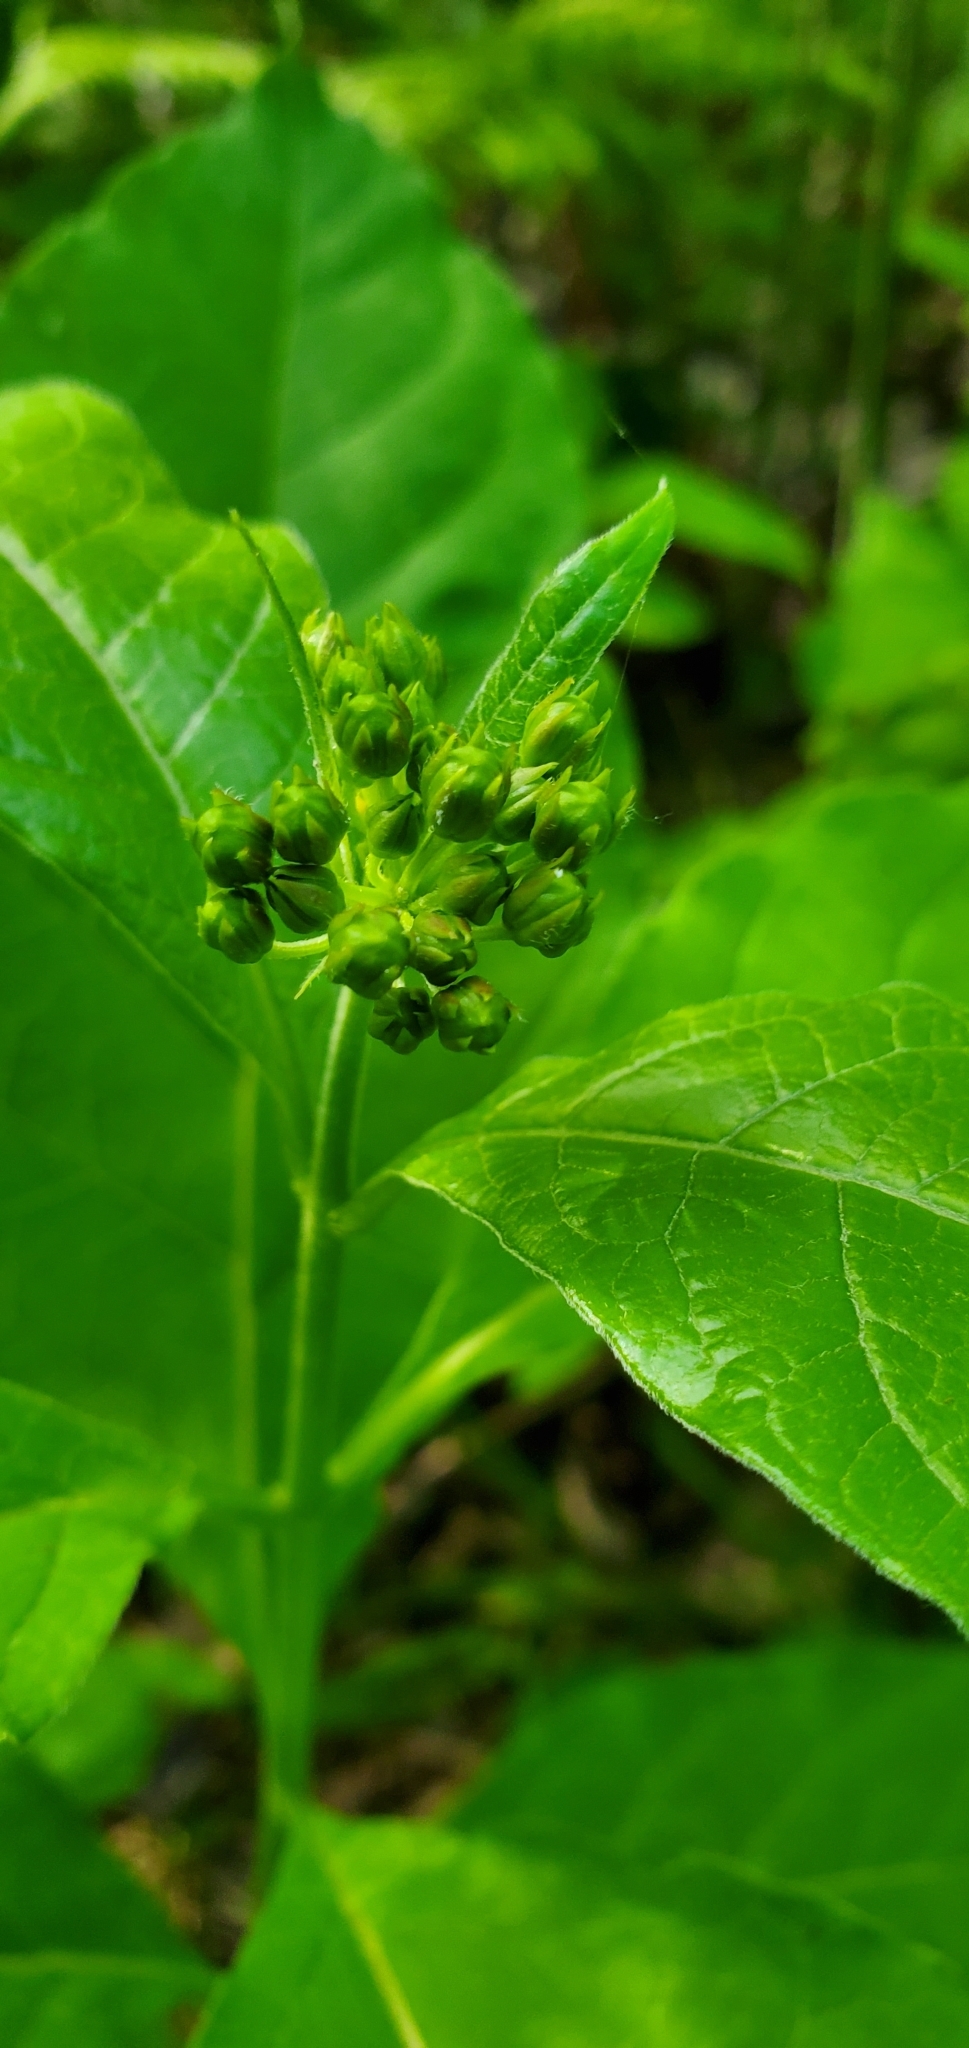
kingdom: Plantae
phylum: Tracheophyta
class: Magnoliopsida
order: Gentianales
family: Apocynaceae
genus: Asclepias
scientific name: Asclepias exaltata
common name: Poke milkweed
